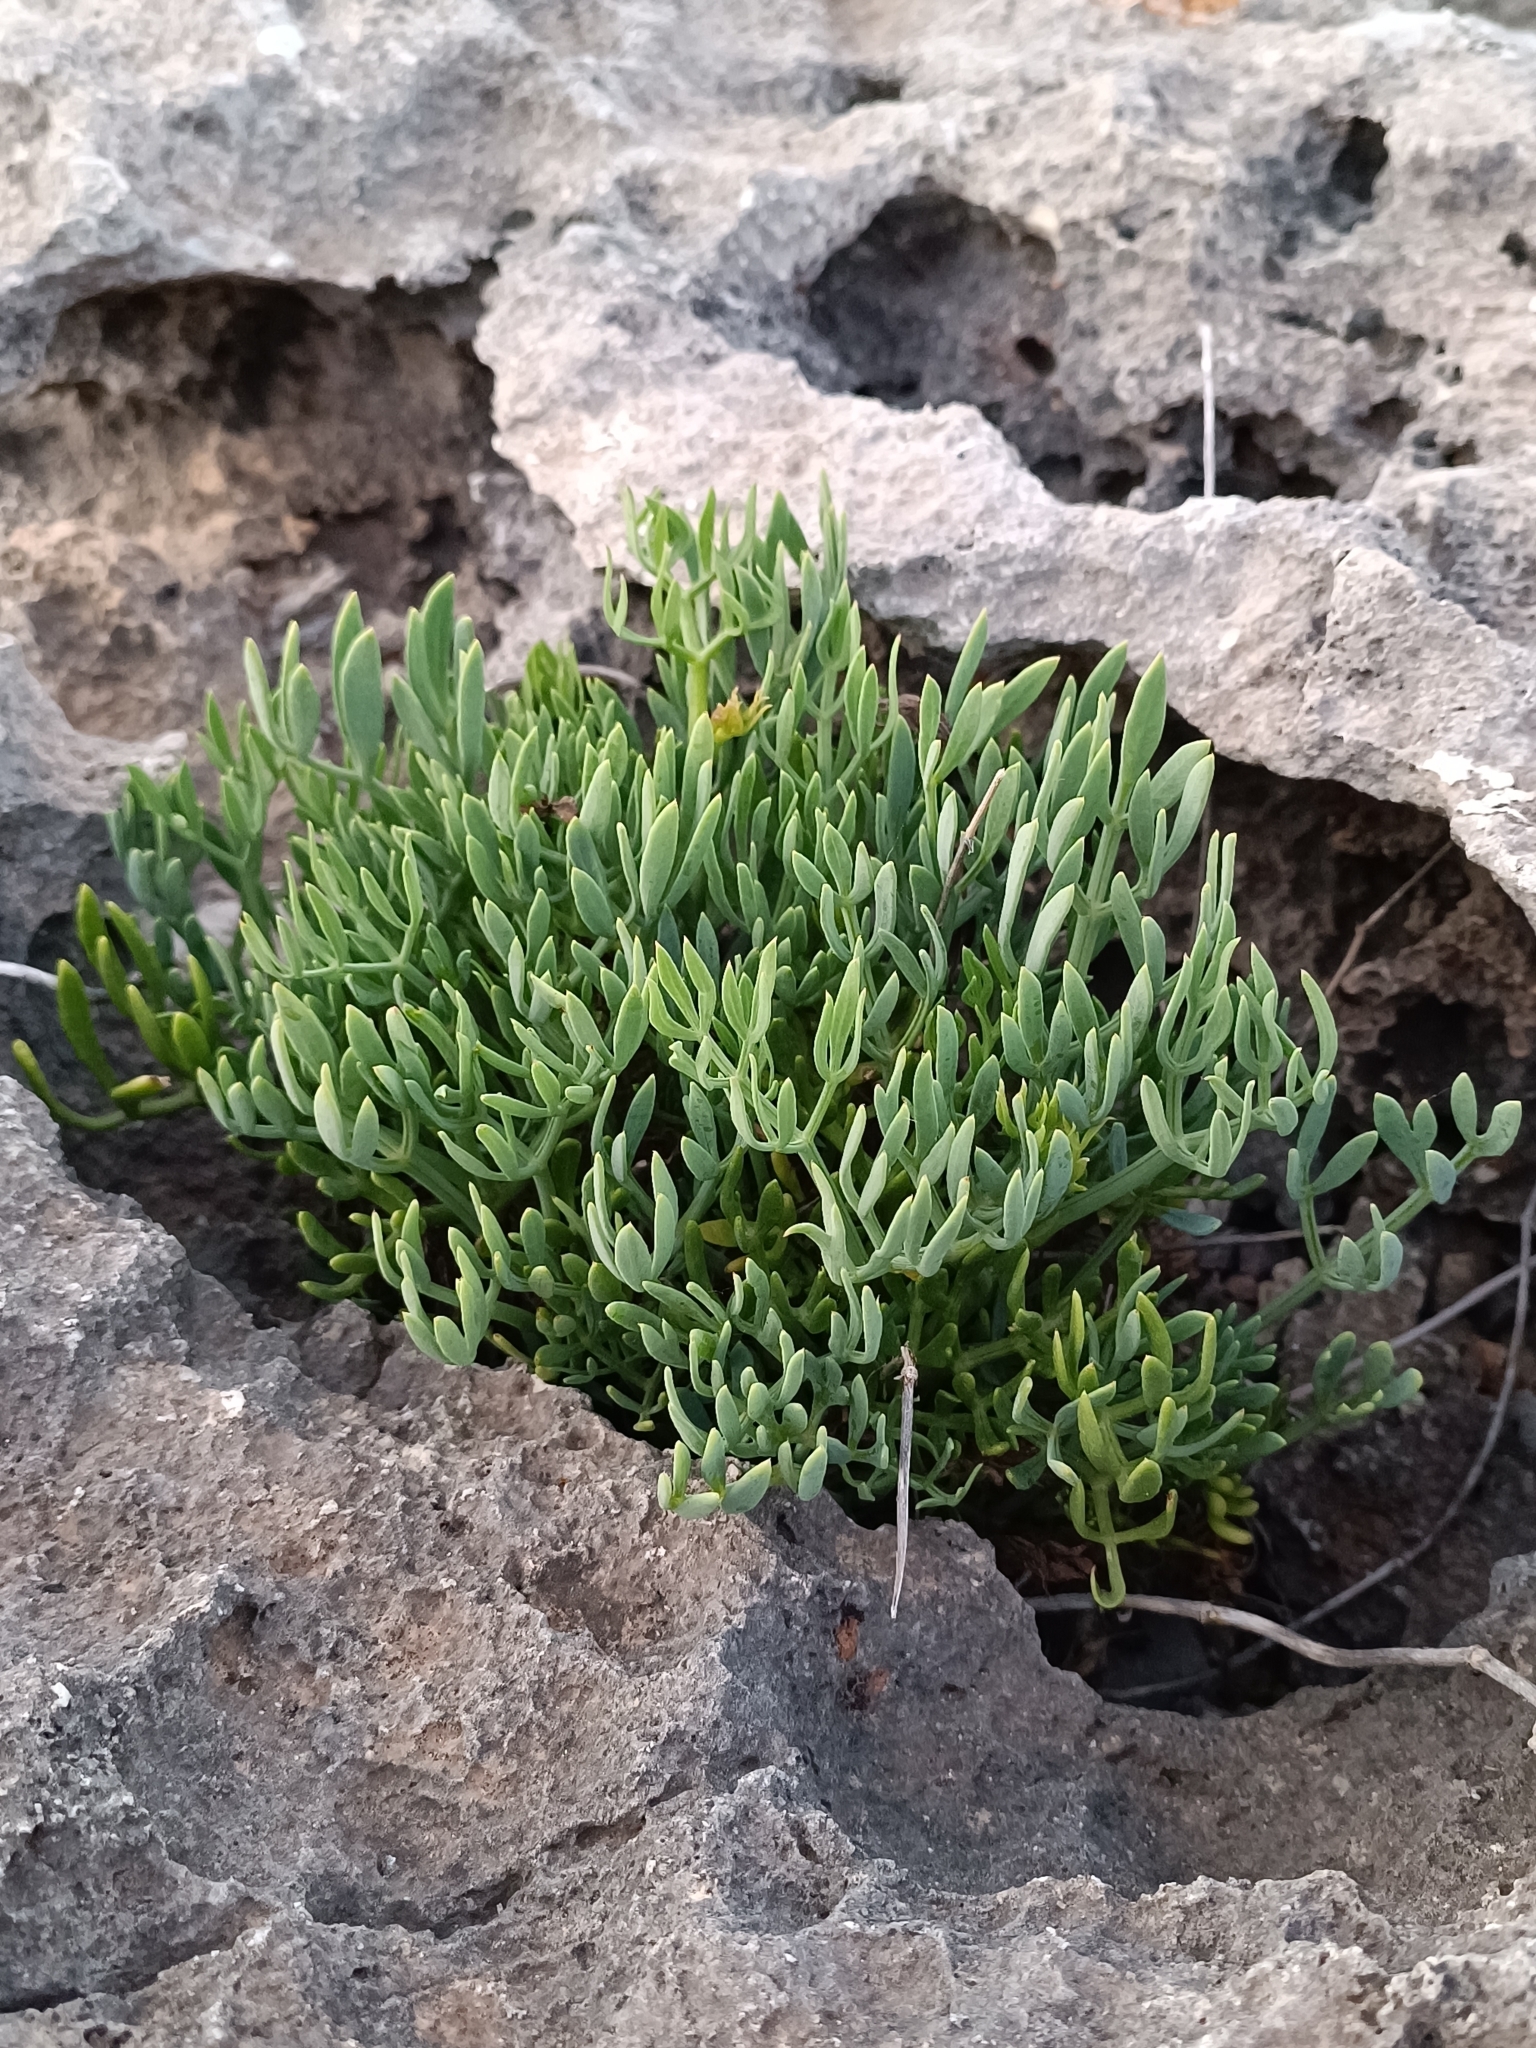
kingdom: Plantae
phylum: Tracheophyta
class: Magnoliopsida
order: Apiales
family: Apiaceae
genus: Crithmum
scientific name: Crithmum maritimum
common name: Rock samphire
